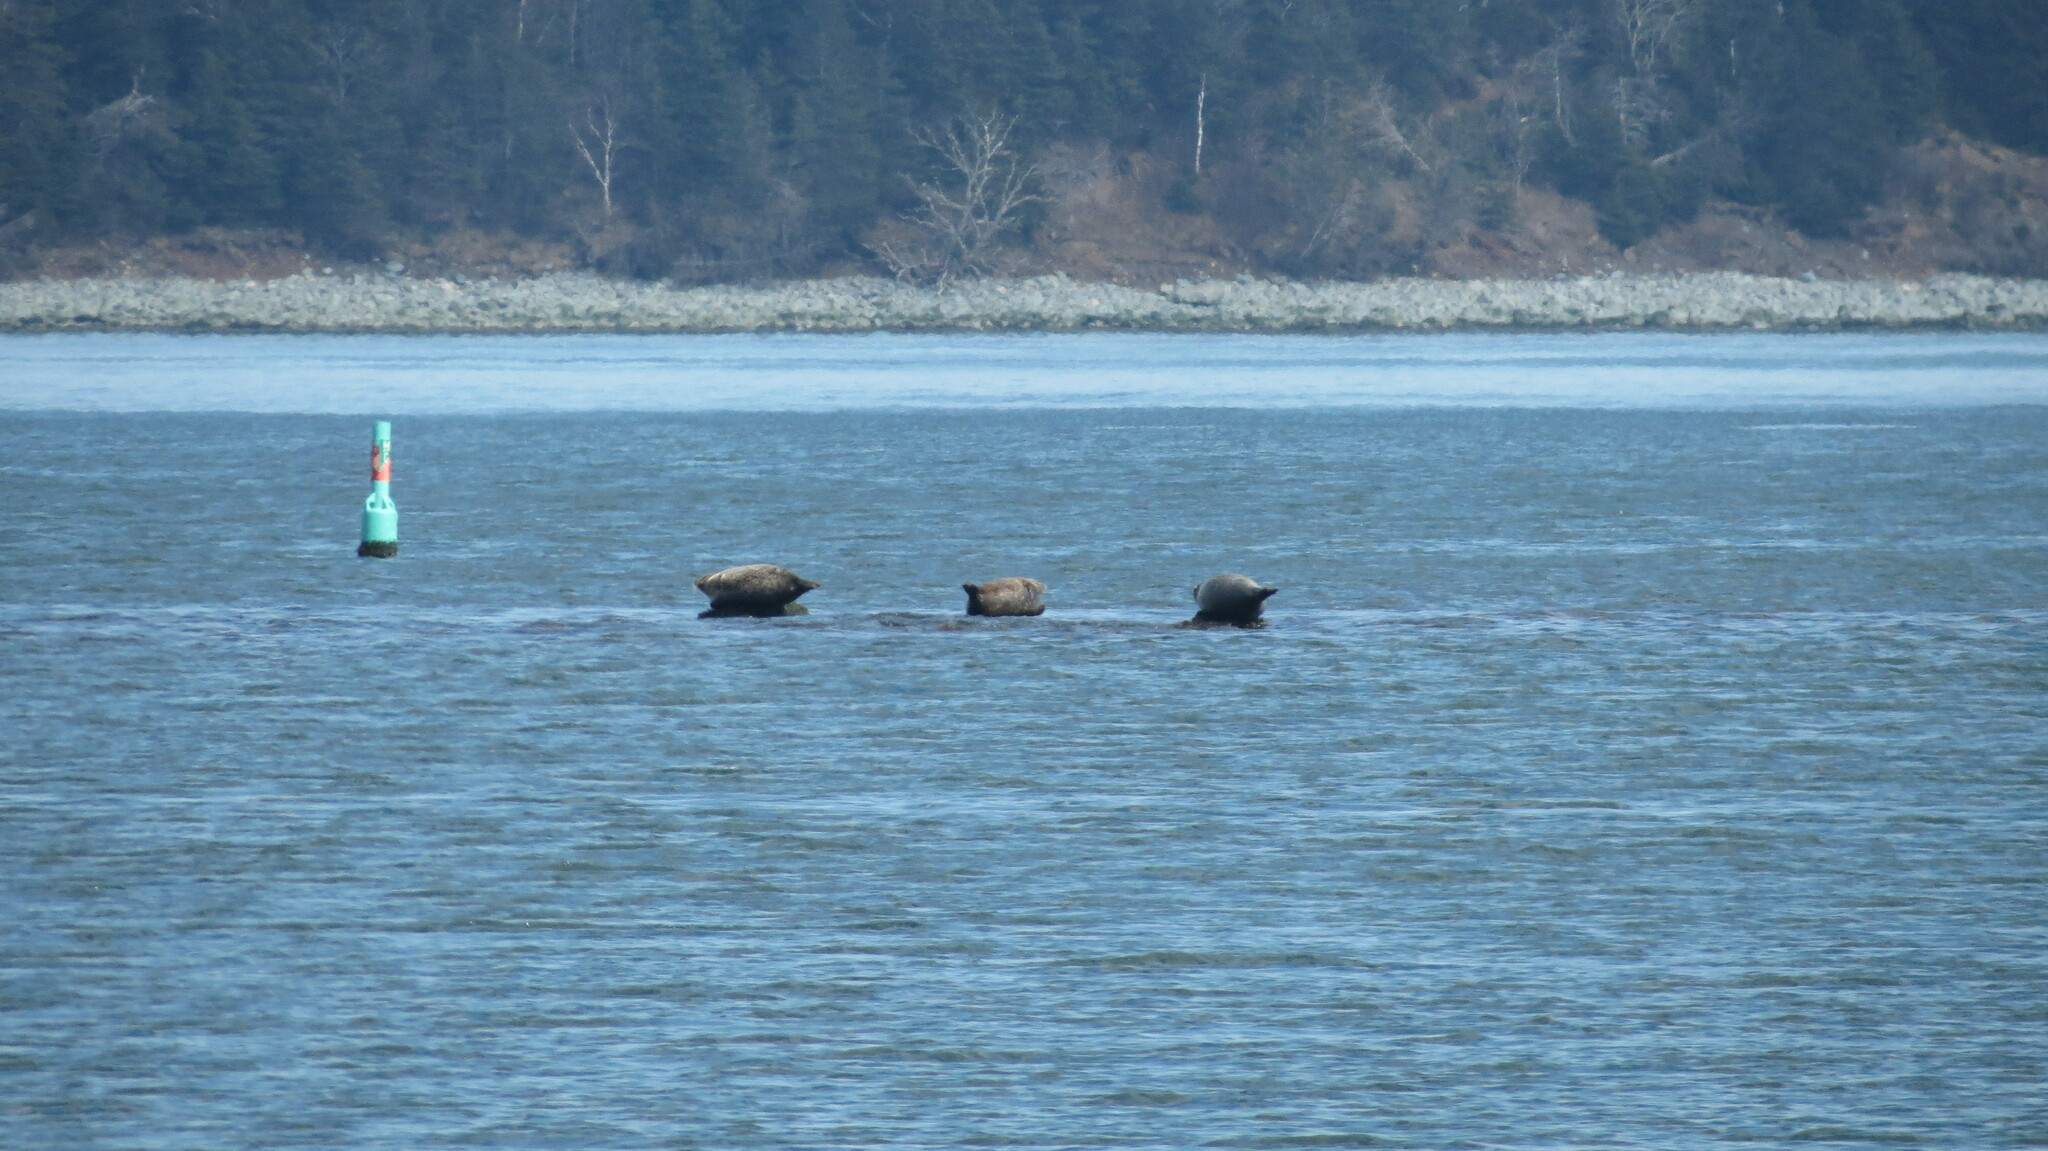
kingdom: Animalia
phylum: Chordata
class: Mammalia
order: Carnivora
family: Phocidae
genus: Phoca
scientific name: Phoca vitulina
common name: Harbor seal
